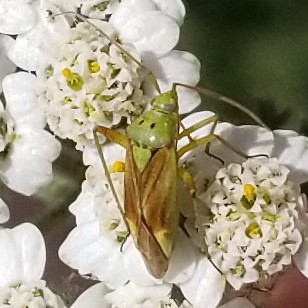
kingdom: Animalia
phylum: Arthropoda
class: Insecta
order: Hemiptera
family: Miridae
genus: Closterotomus
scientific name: Closterotomus norvegicus
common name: Plant bug
